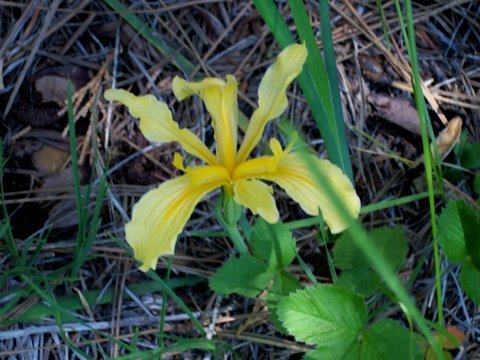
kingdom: Plantae
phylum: Tracheophyta
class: Liliopsida
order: Asparagales
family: Iridaceae
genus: Iris
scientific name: Iris hartwegii
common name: Sierra iris
